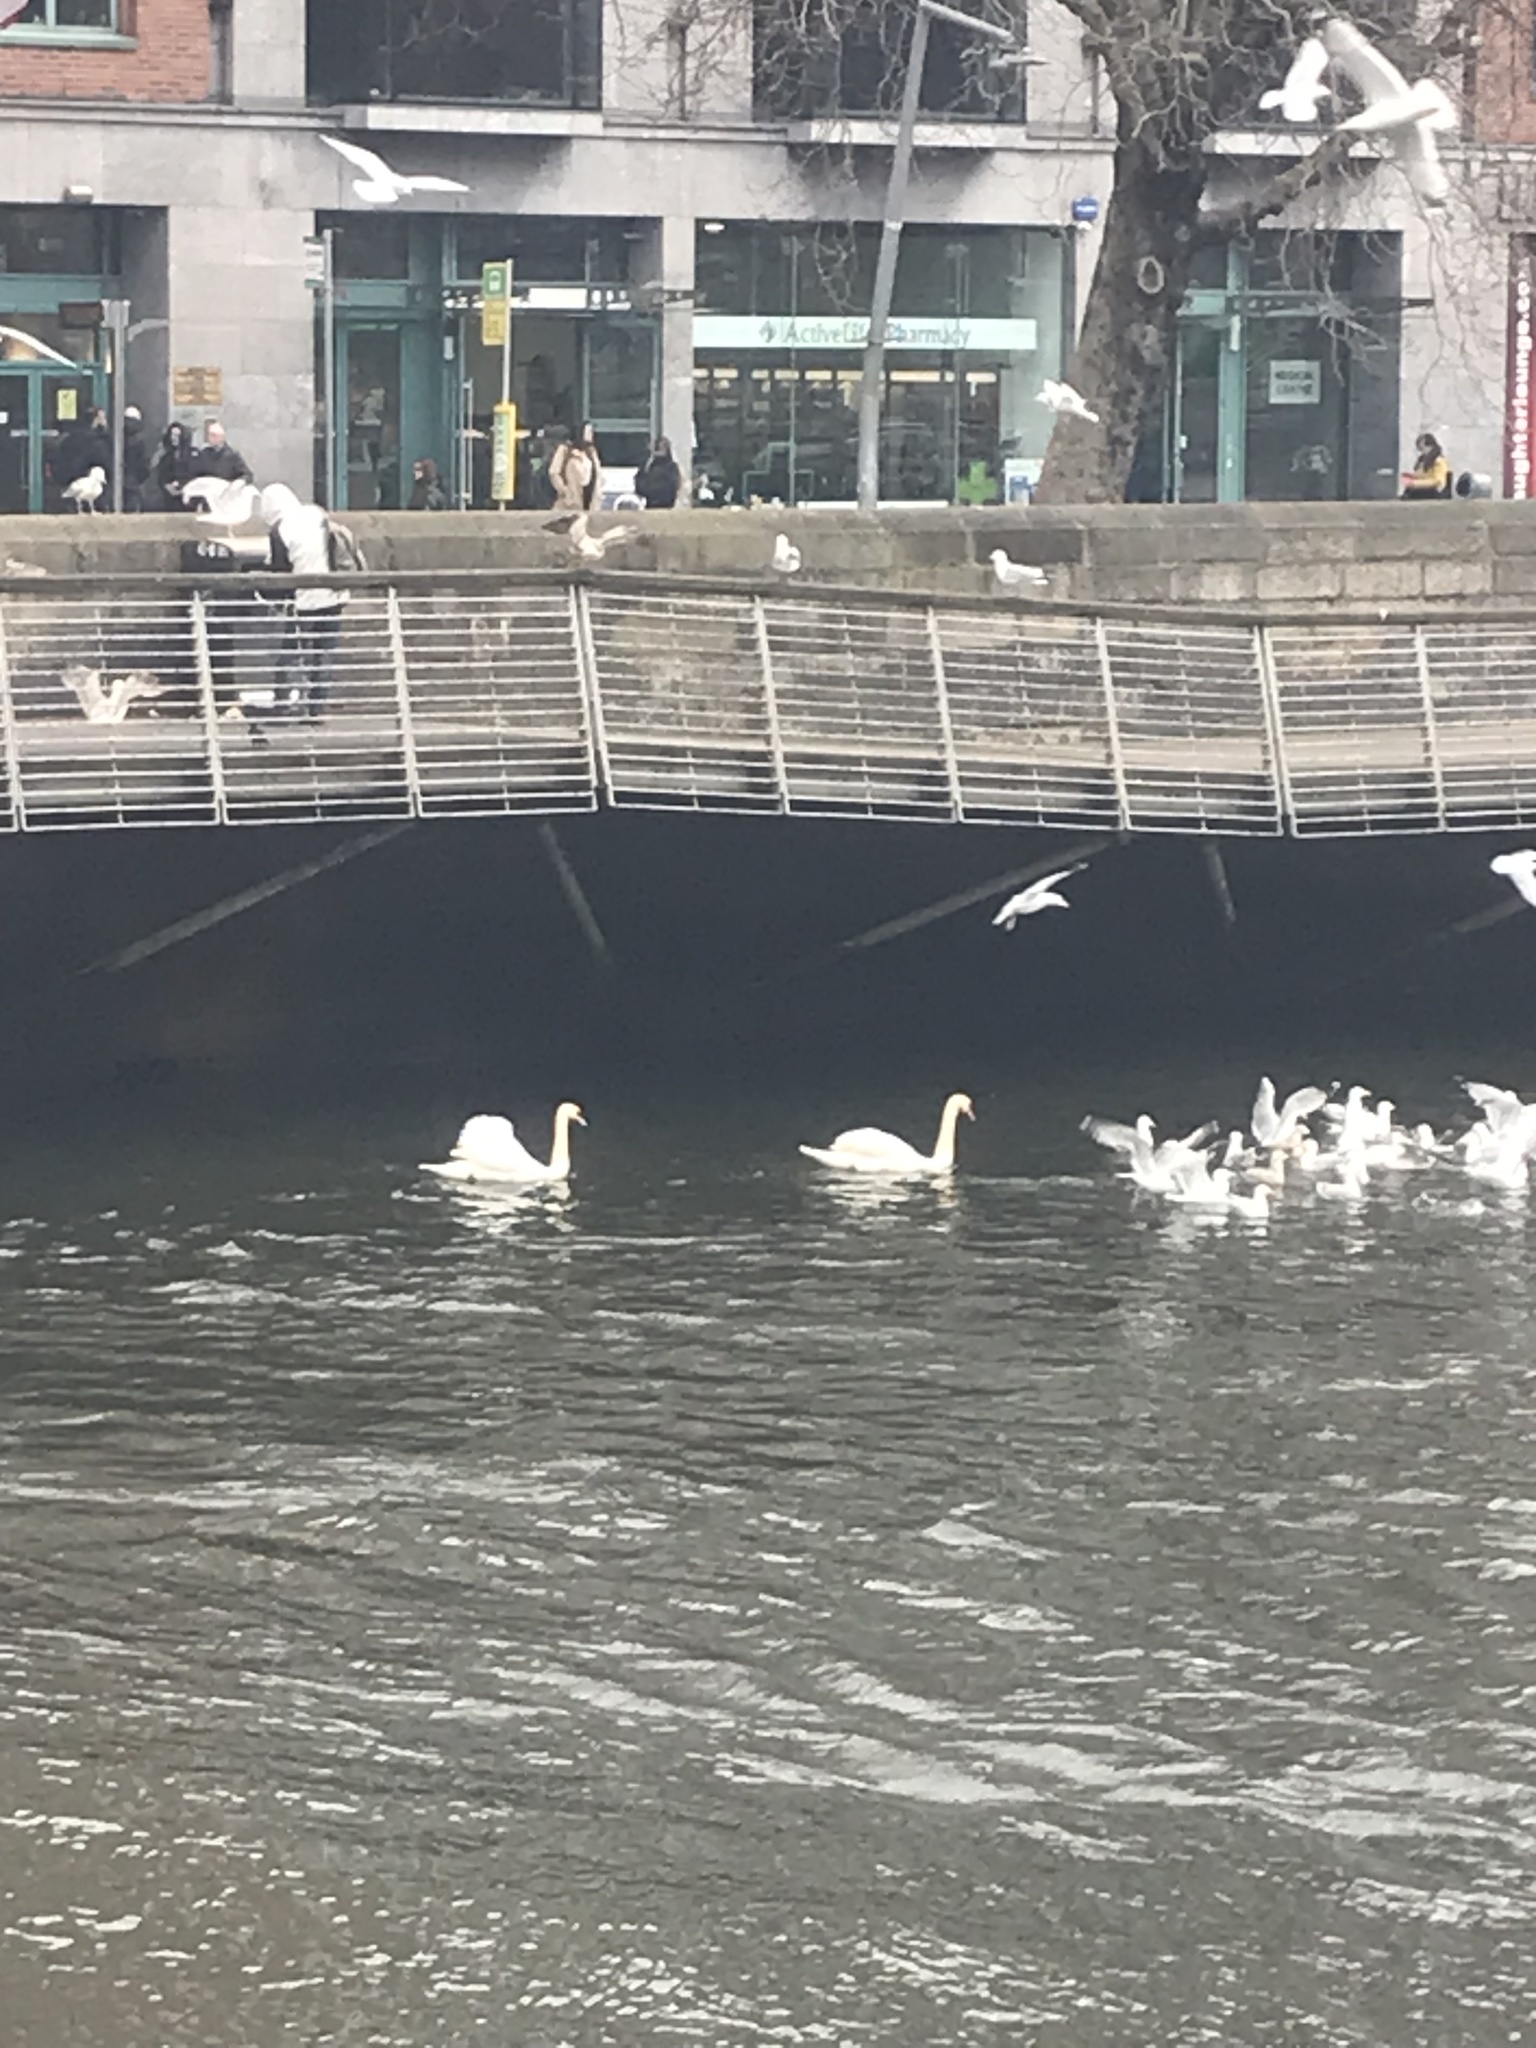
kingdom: Animalia
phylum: Chordata
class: Aves
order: Anseriformes
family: Anatidae
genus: Cygnus
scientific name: Cygnus olor
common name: Mute swan
